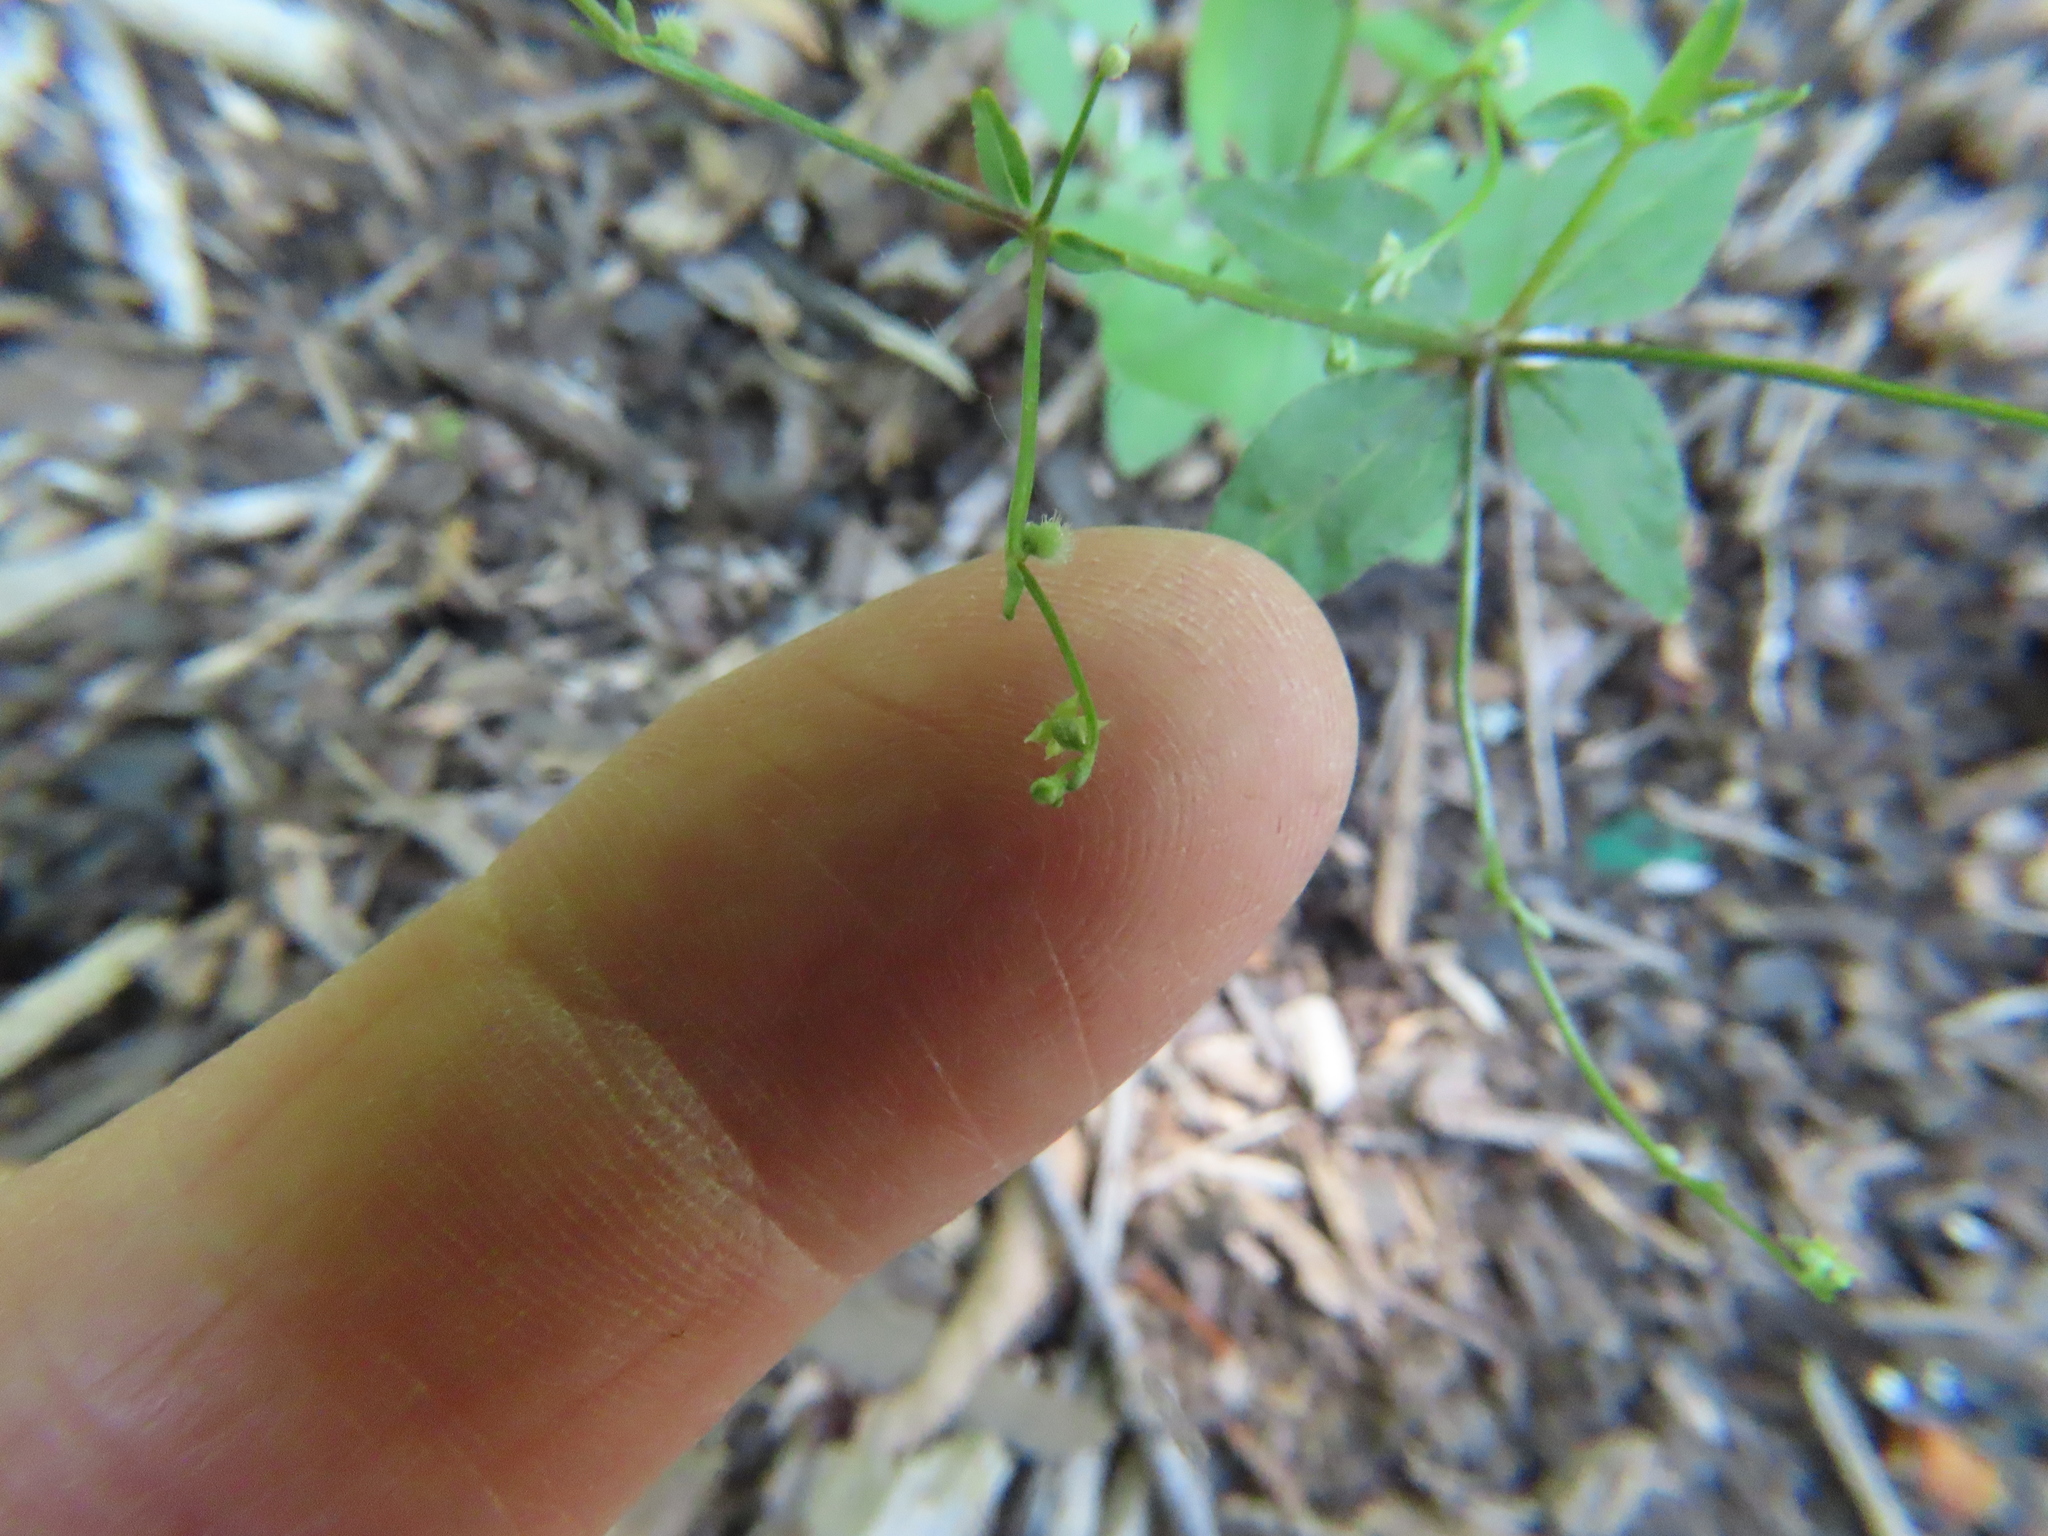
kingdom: Plantae
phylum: Tracheophyta
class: Magnoliopsida
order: Gentianales
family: Rubiaceae
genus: Galium
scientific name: Galium circaezans
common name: Forest bedstraw
